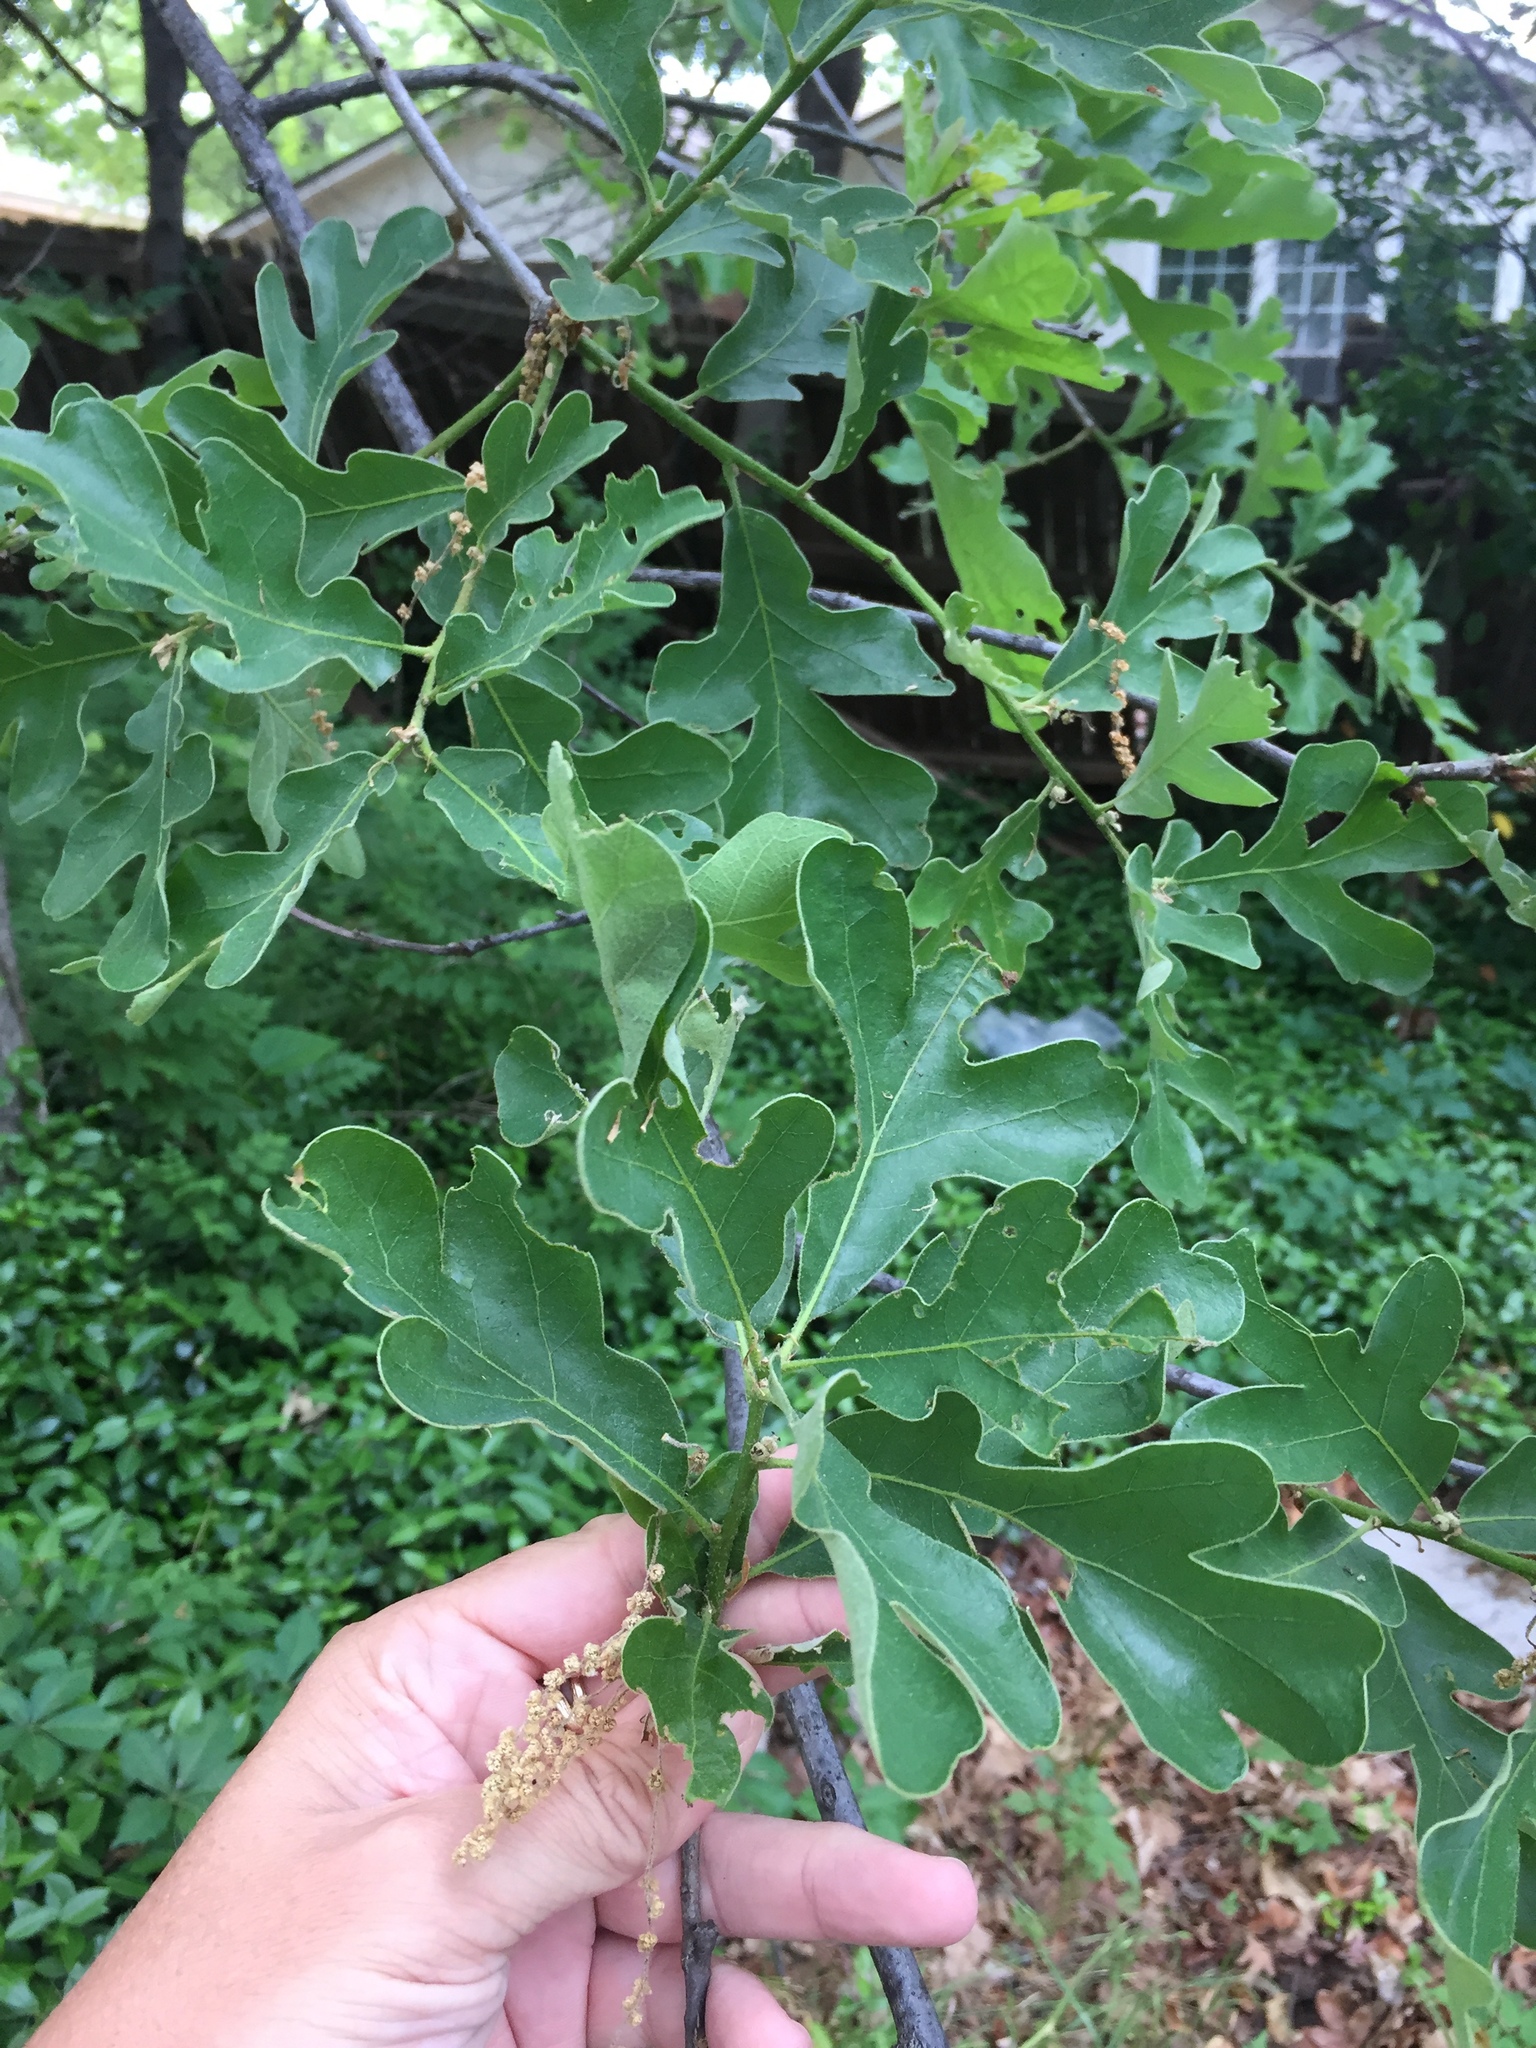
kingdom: Plantae
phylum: Tracheophyta
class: Magnoliopsida
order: Fagales
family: Fagaceae
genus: Quercus
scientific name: Quercus stellata
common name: Post oak
